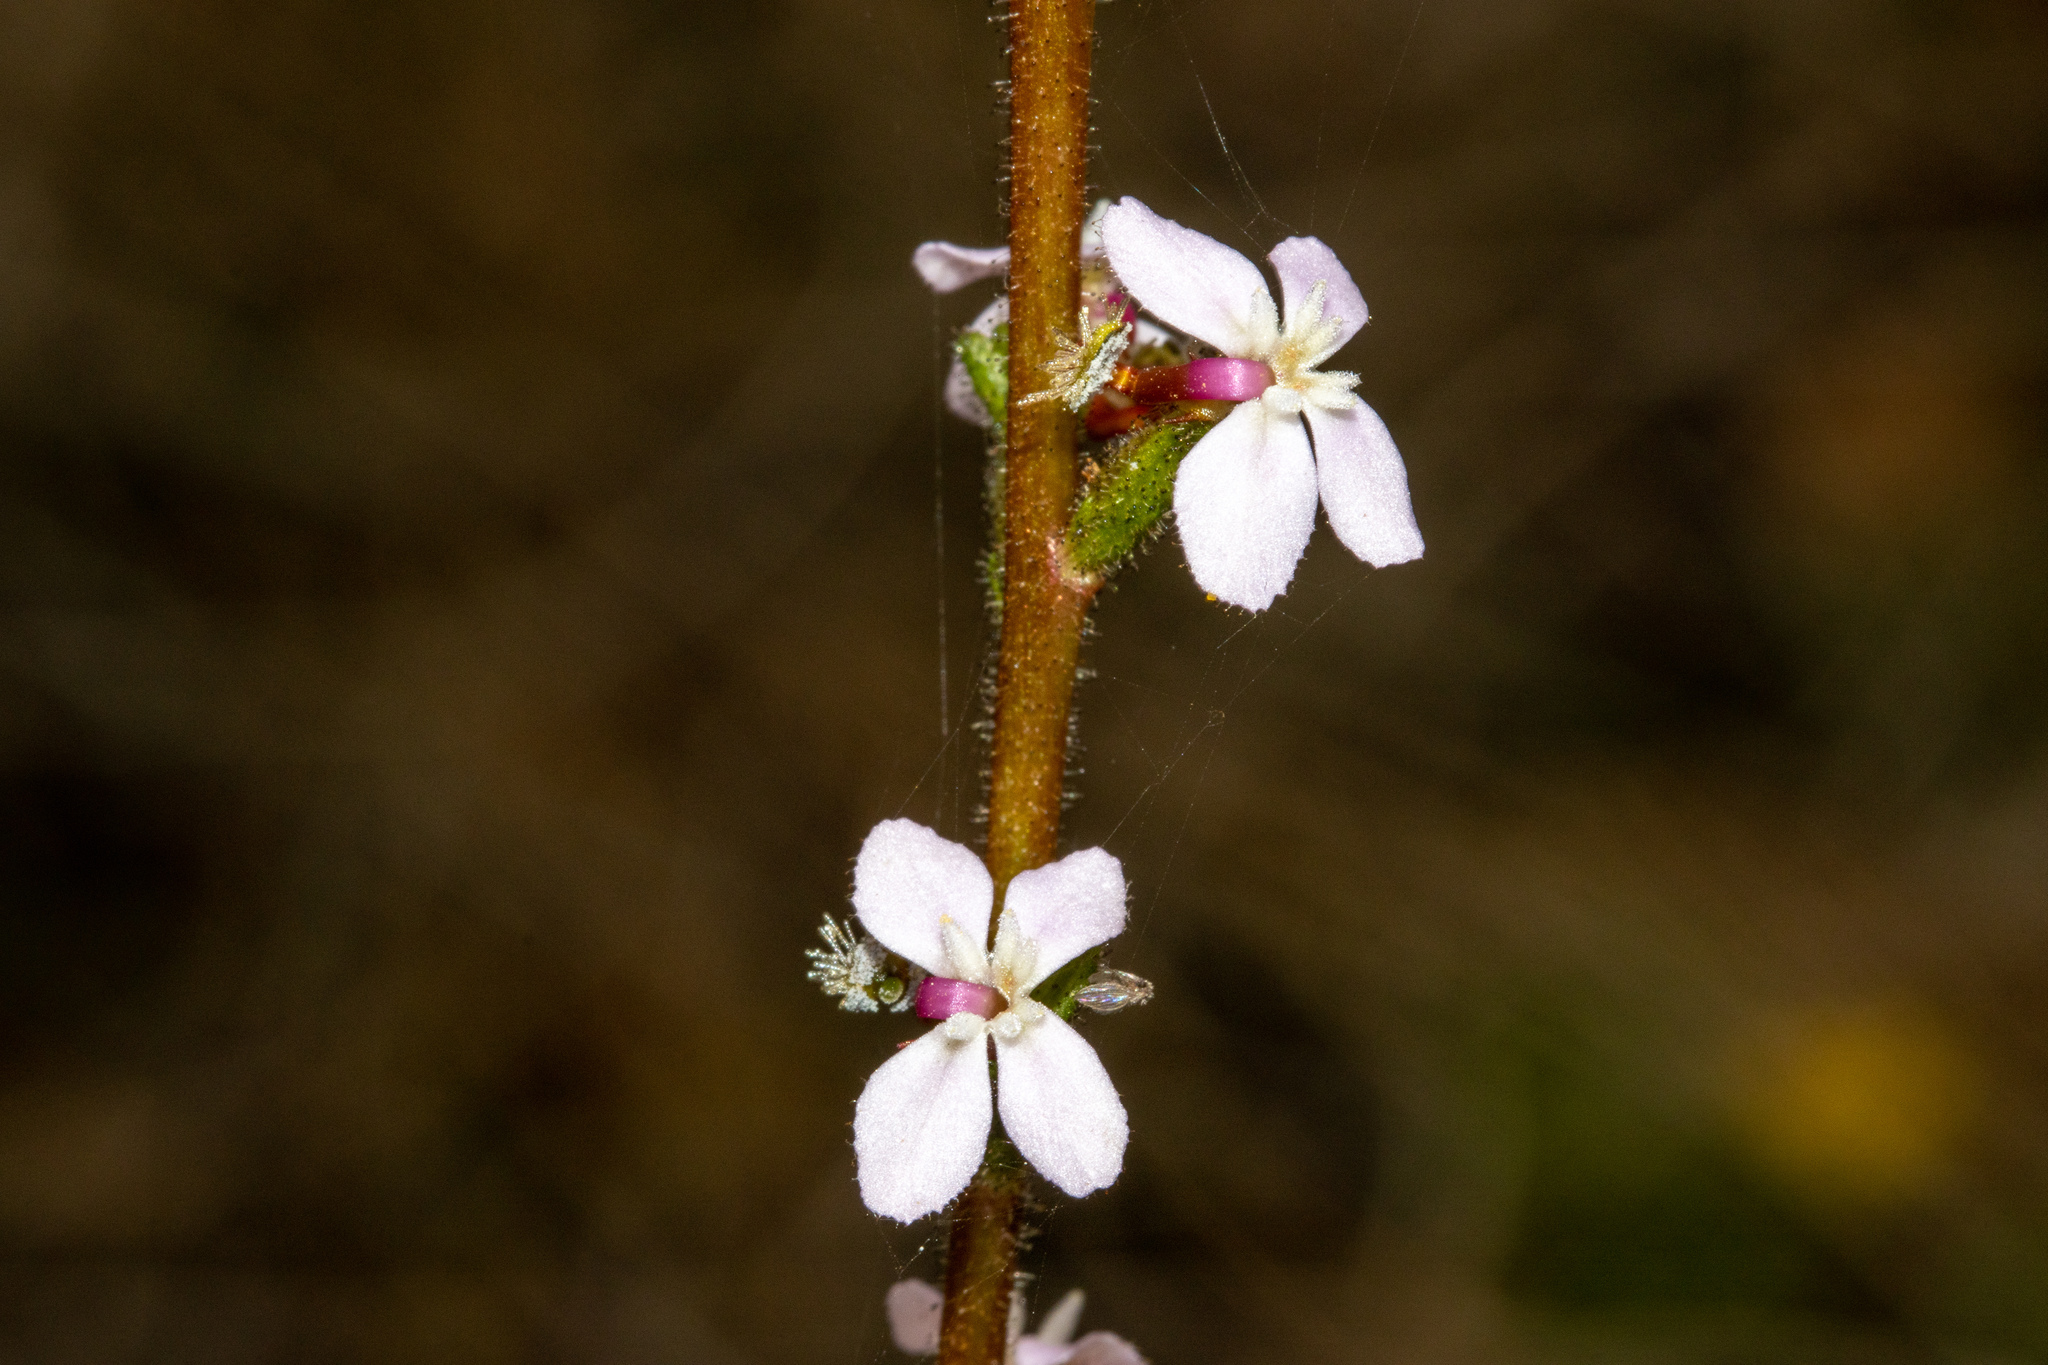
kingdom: Plantae
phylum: Tracheophyta
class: Magnoliopsida
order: Asterales
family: Stylidiaceae
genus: Stylidium
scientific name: Stylidium armeria
